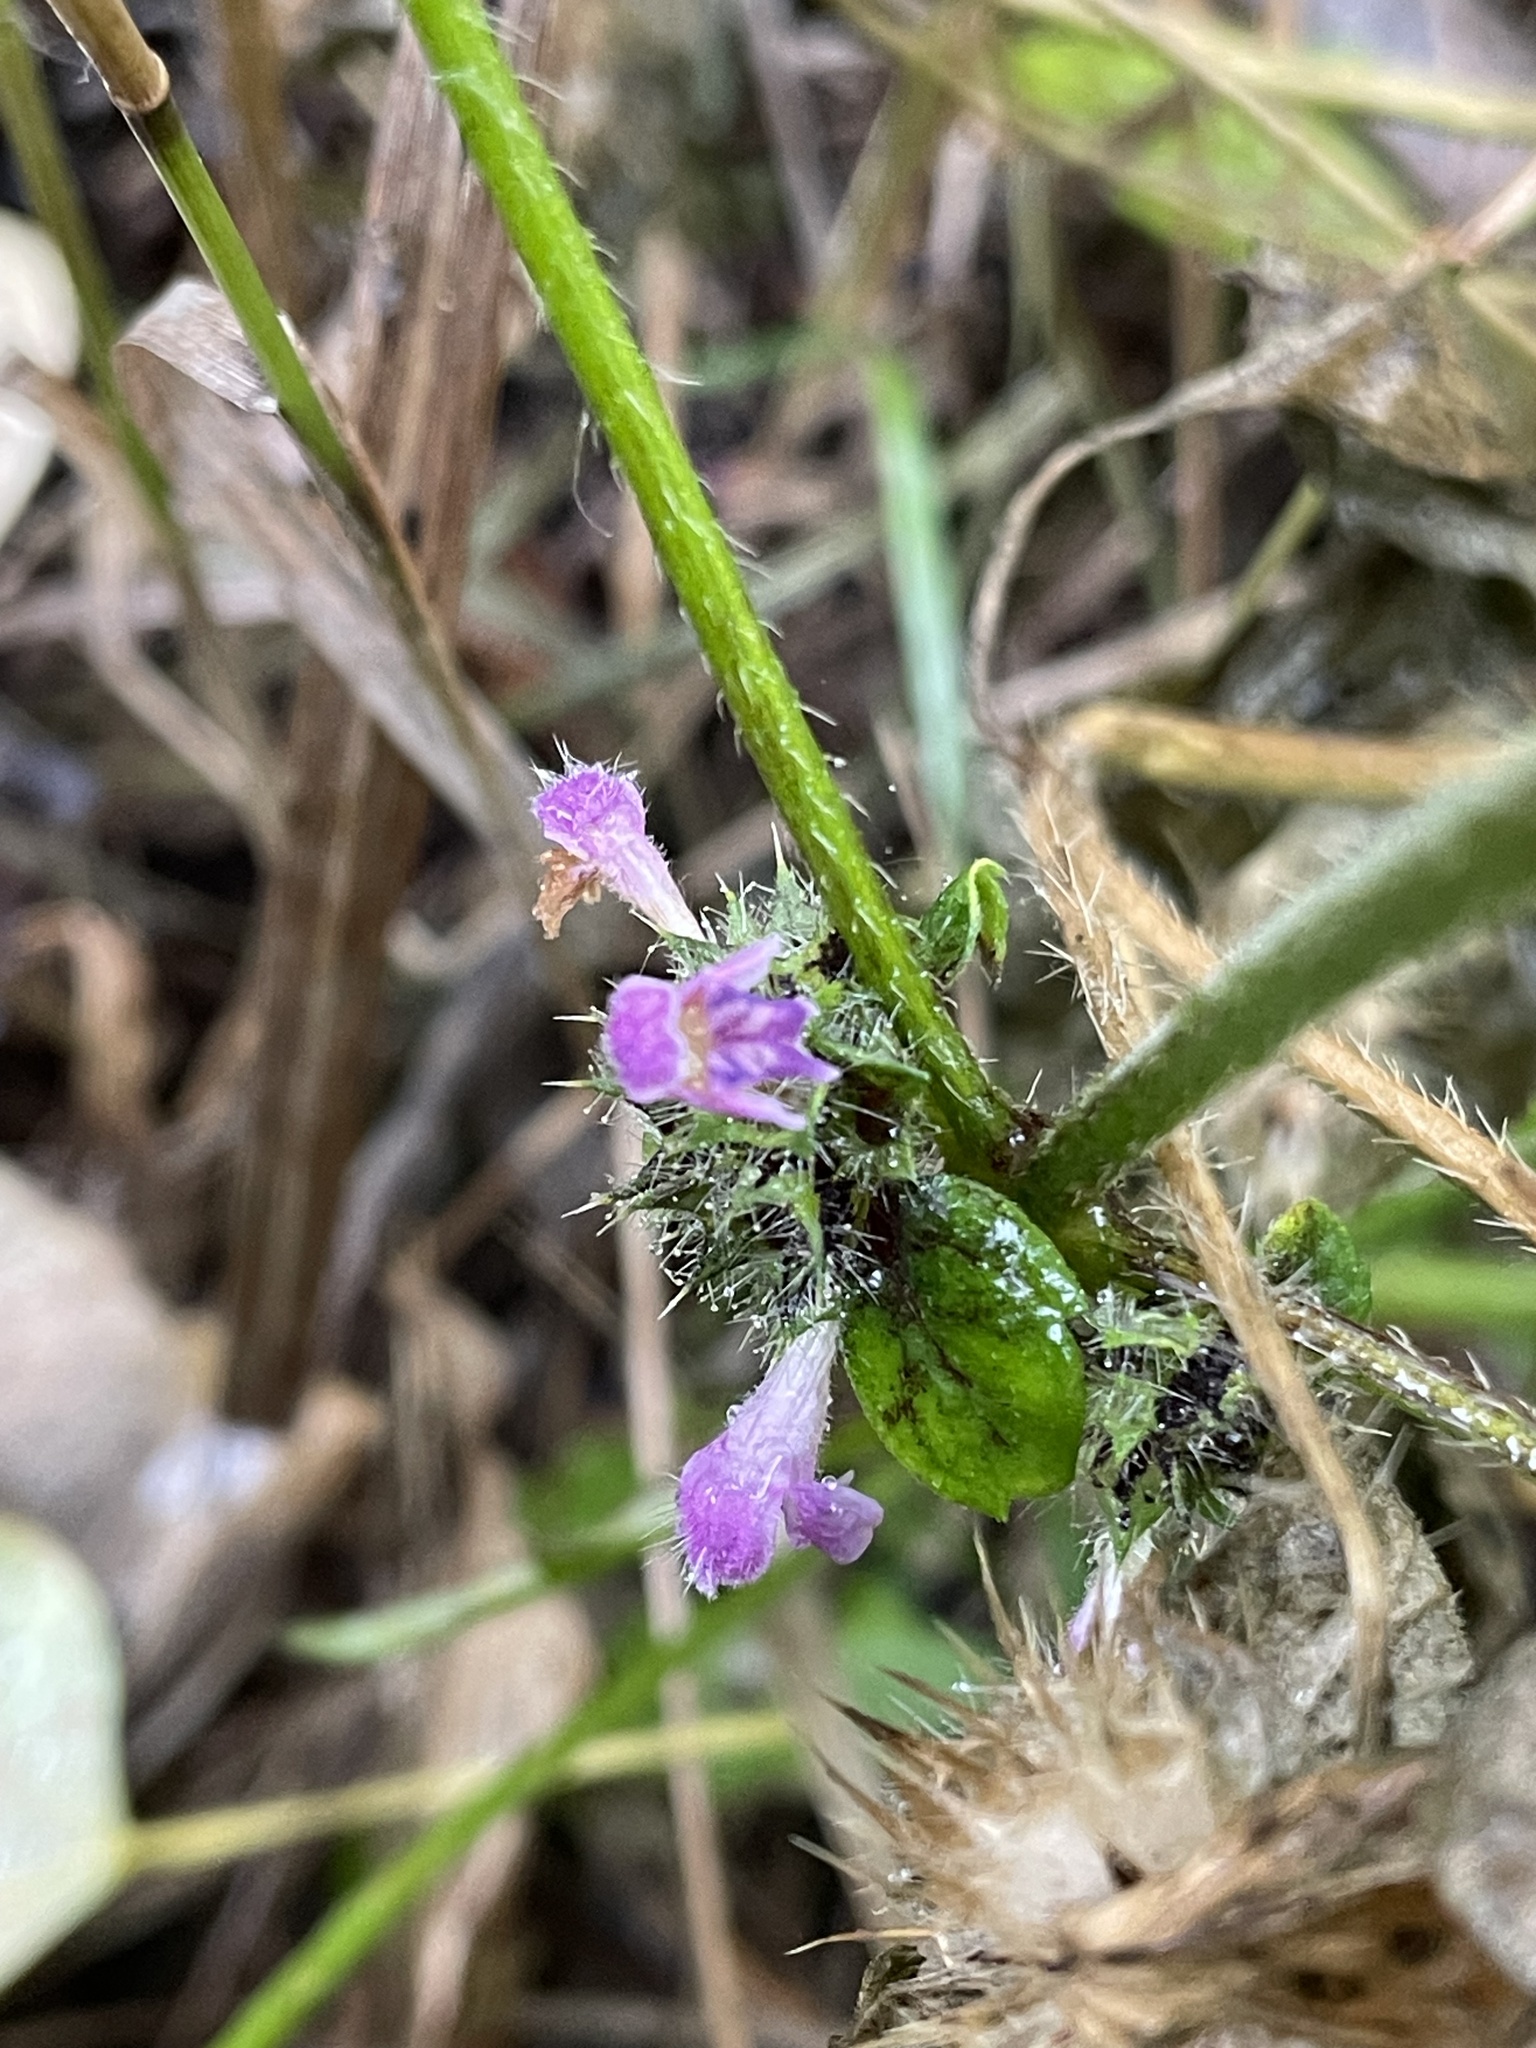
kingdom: Plantae
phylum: Tracheophyta
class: Magnoliopsida
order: Lamiales
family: Lamiaceae
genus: Galeopsis
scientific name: Galeopsis bifida
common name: Bifid hemp-nettle
